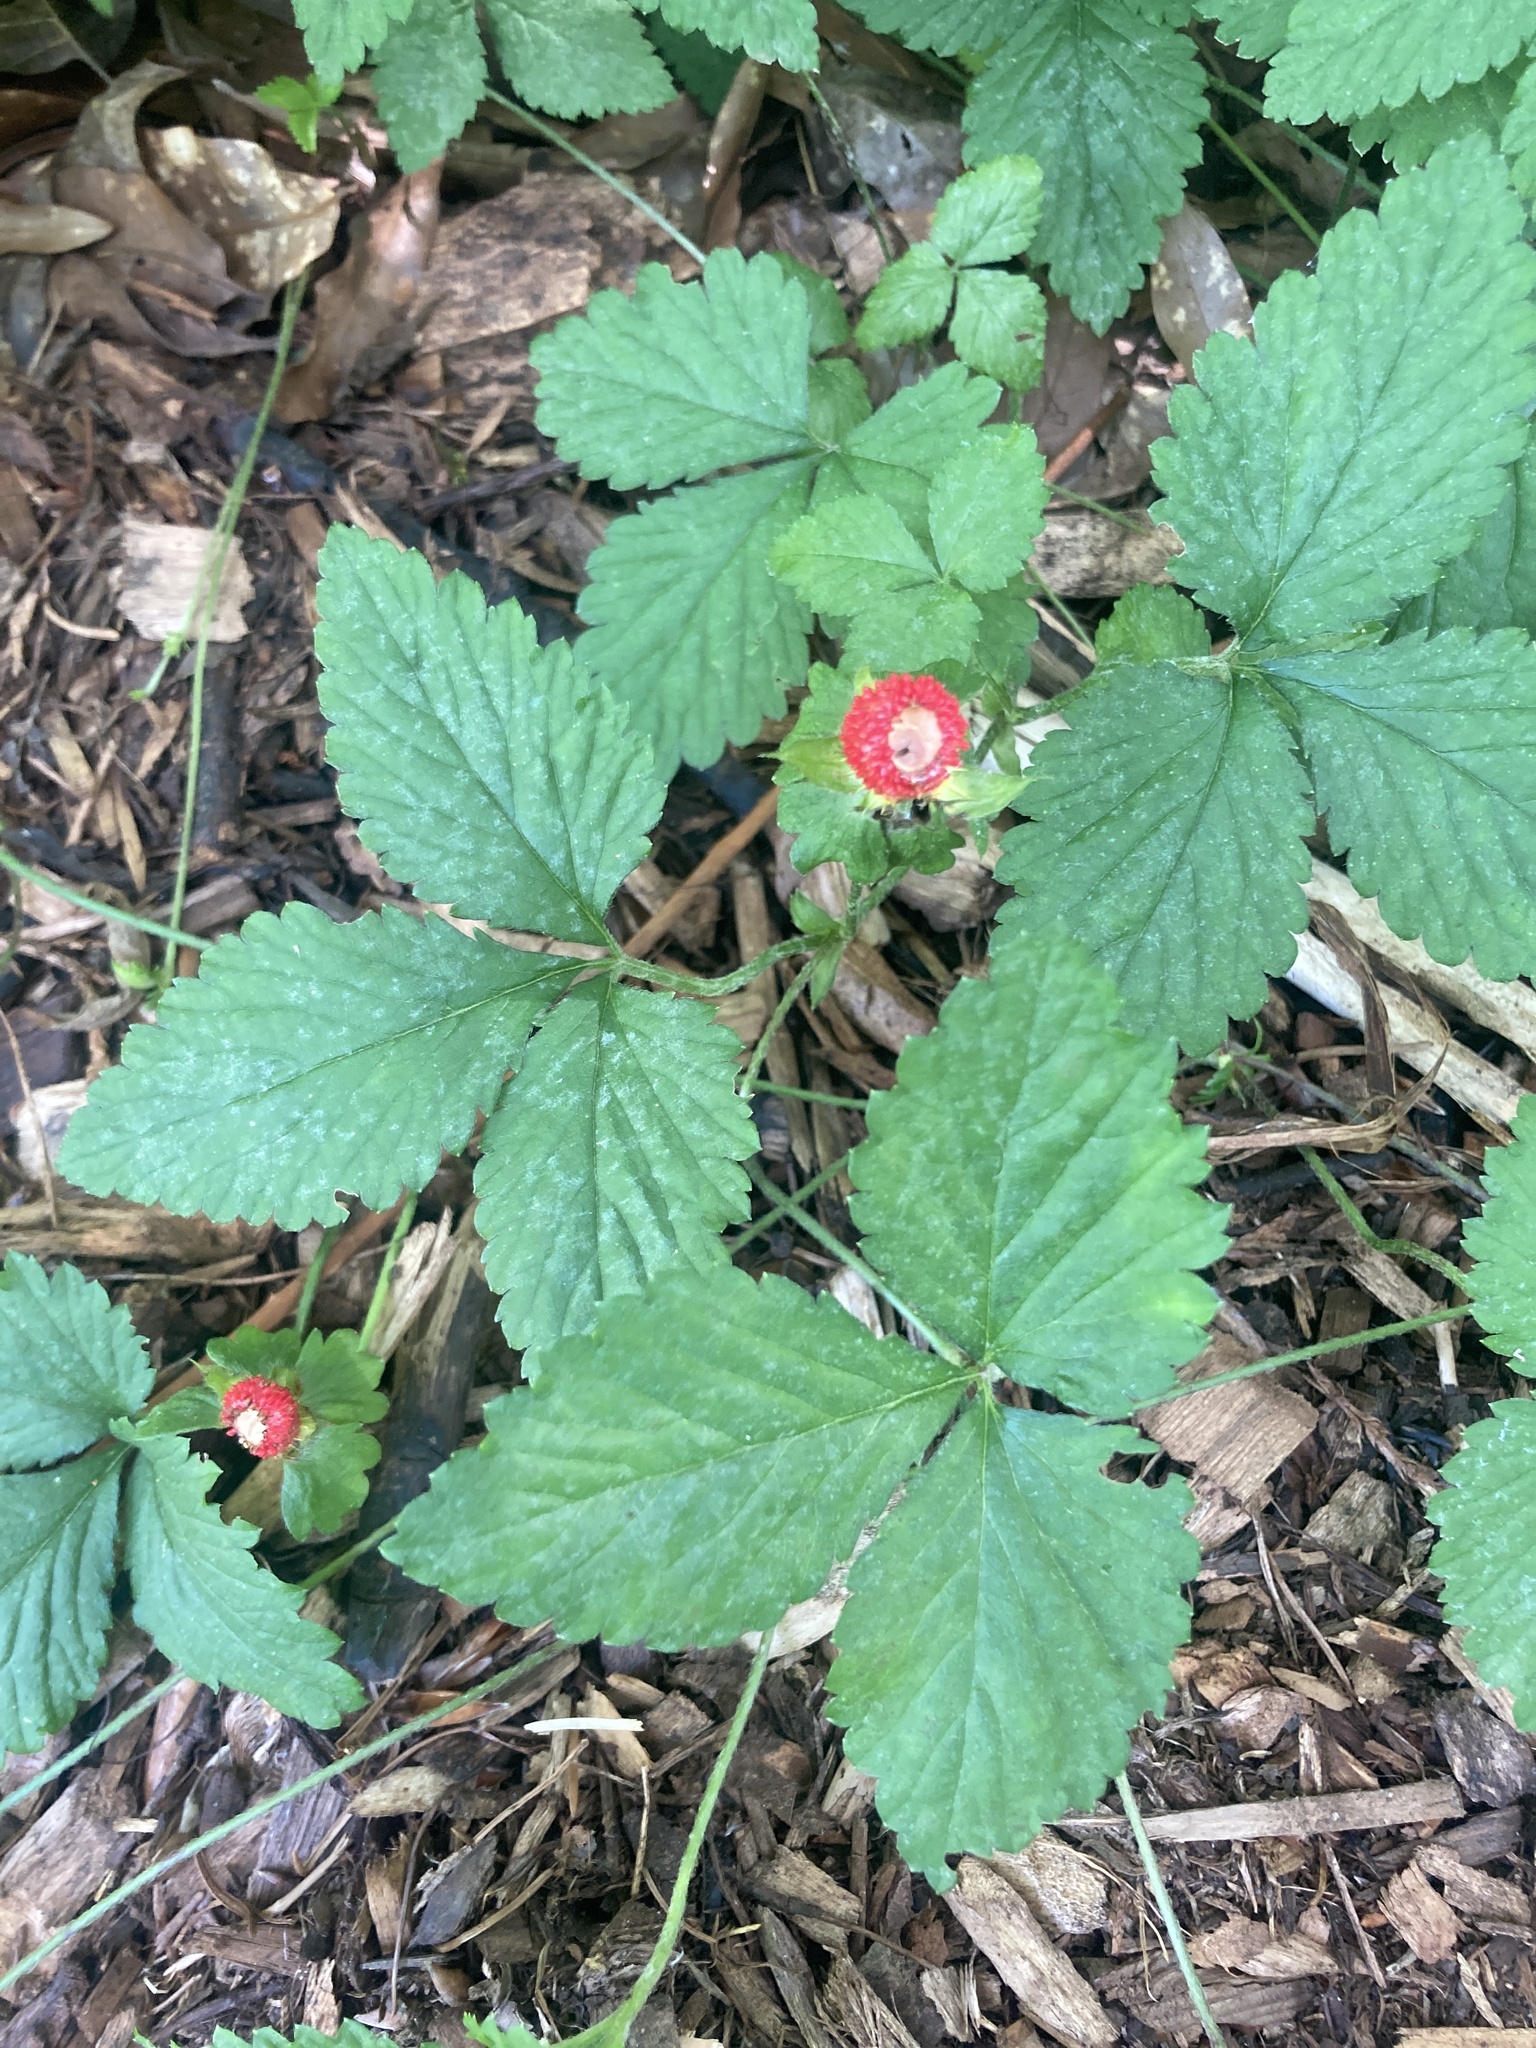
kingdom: Plantae
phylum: Tracheophyta
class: Magnoliopsida
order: Rosales
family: Rosaceae
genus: Potentilla
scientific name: Potentilla indica
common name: Yellow-flowered strawberry
